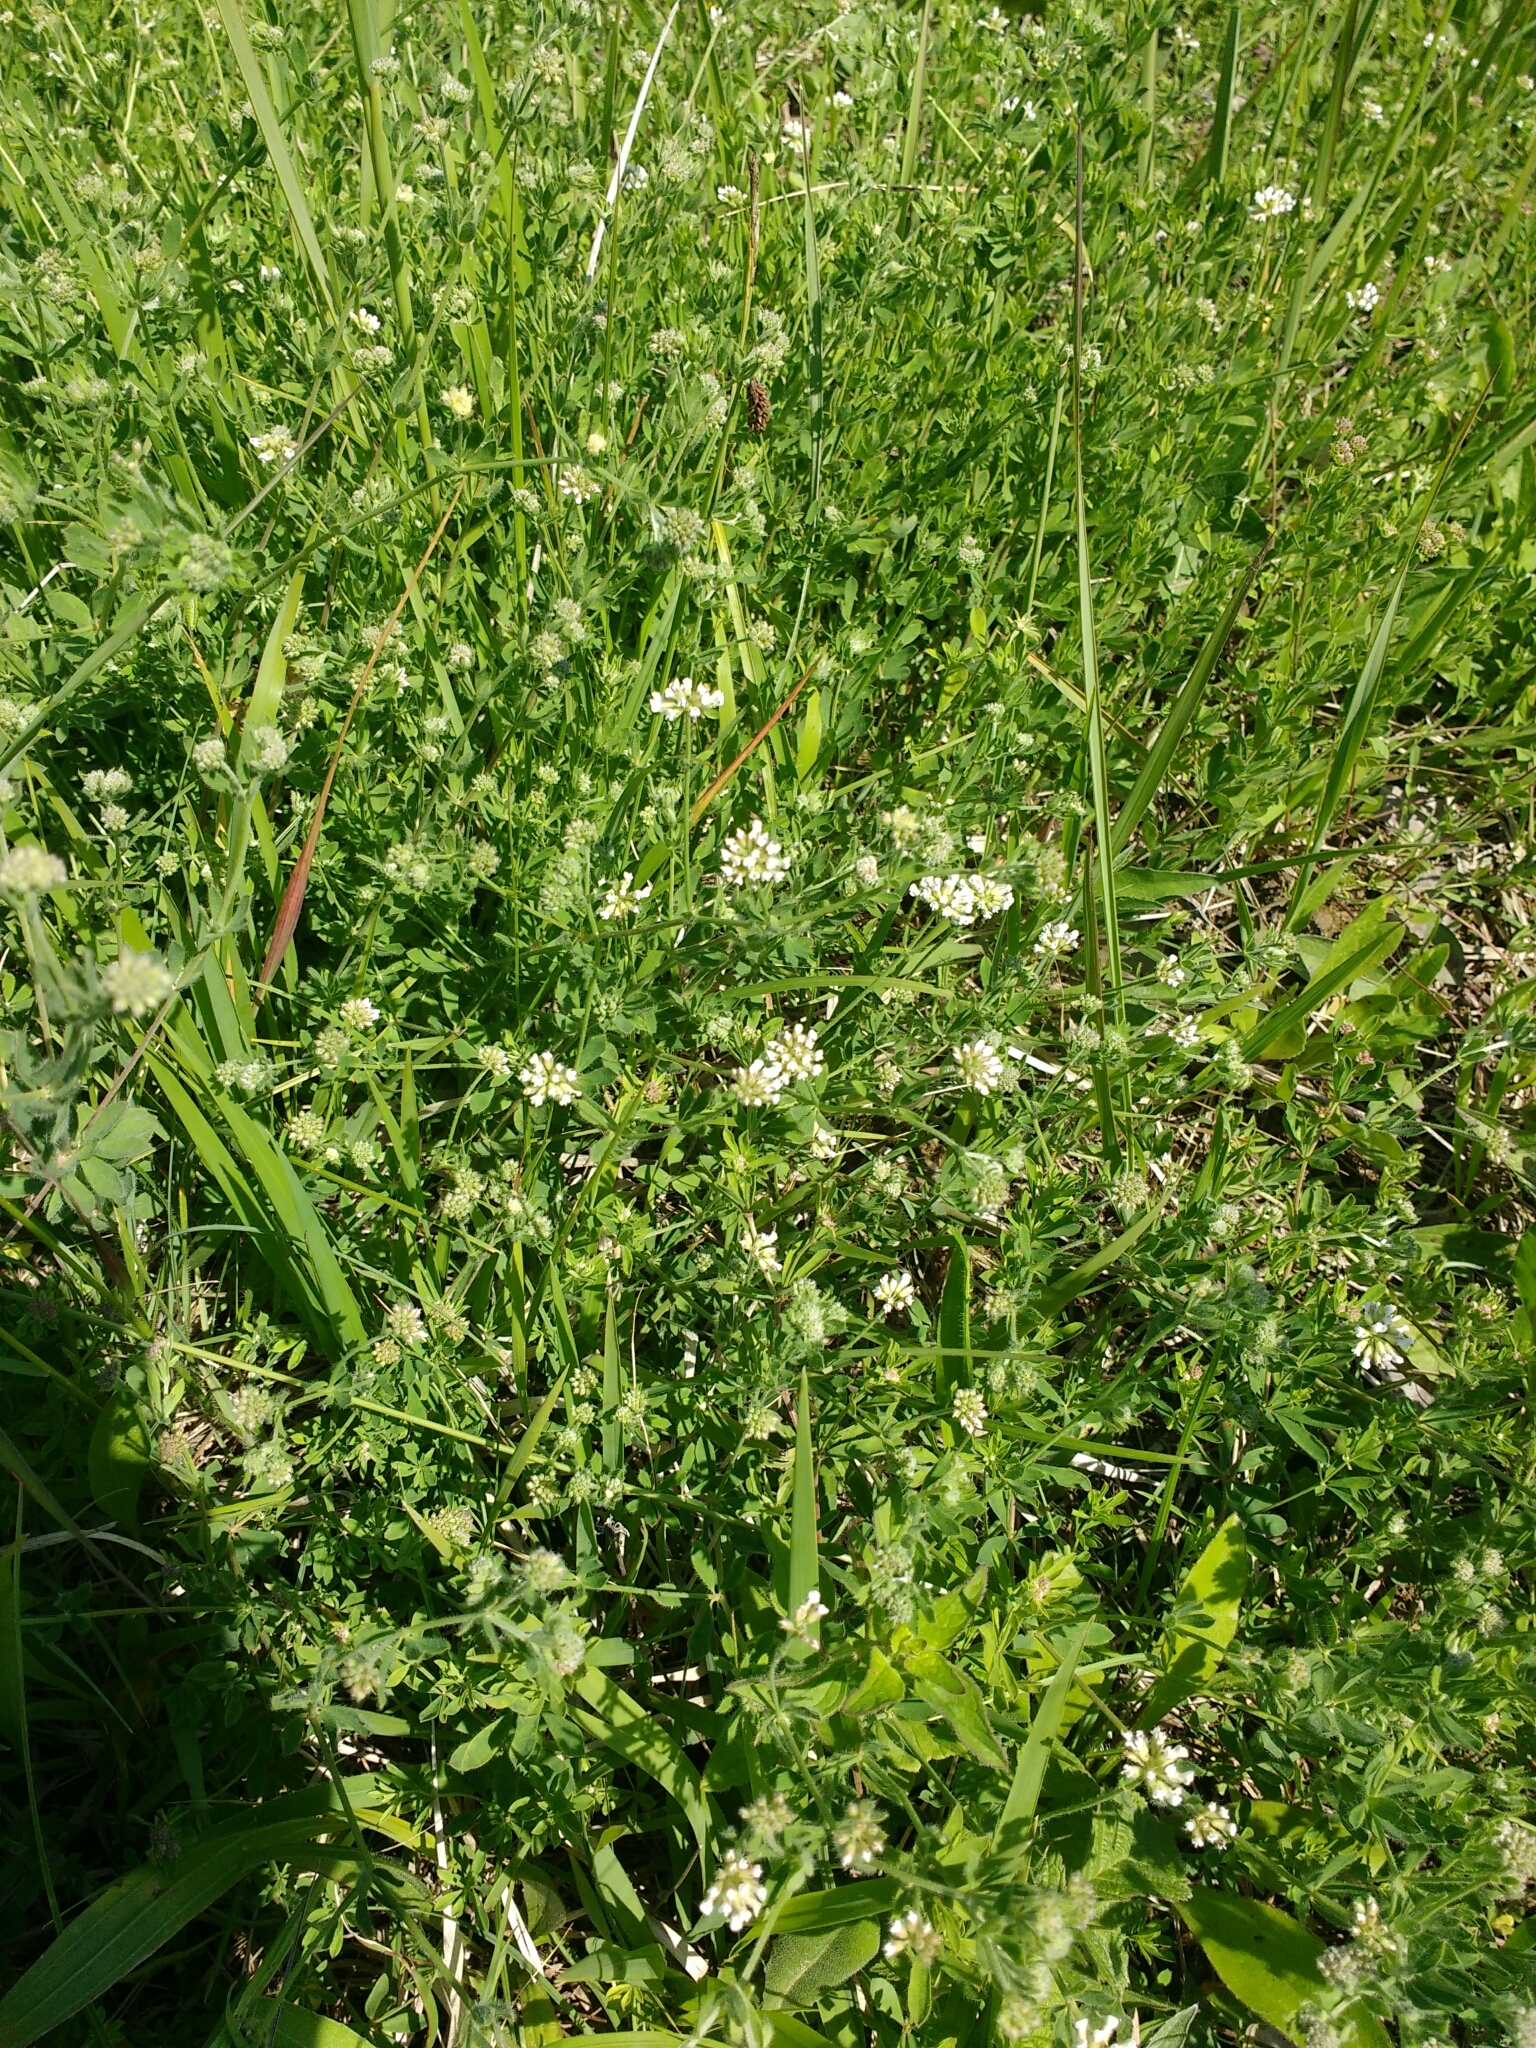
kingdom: Plantae
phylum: Tracheophyta
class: Magnoliopsida
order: Fabales
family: Fabaceae
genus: Lotus
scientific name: Lotus herbaceus
